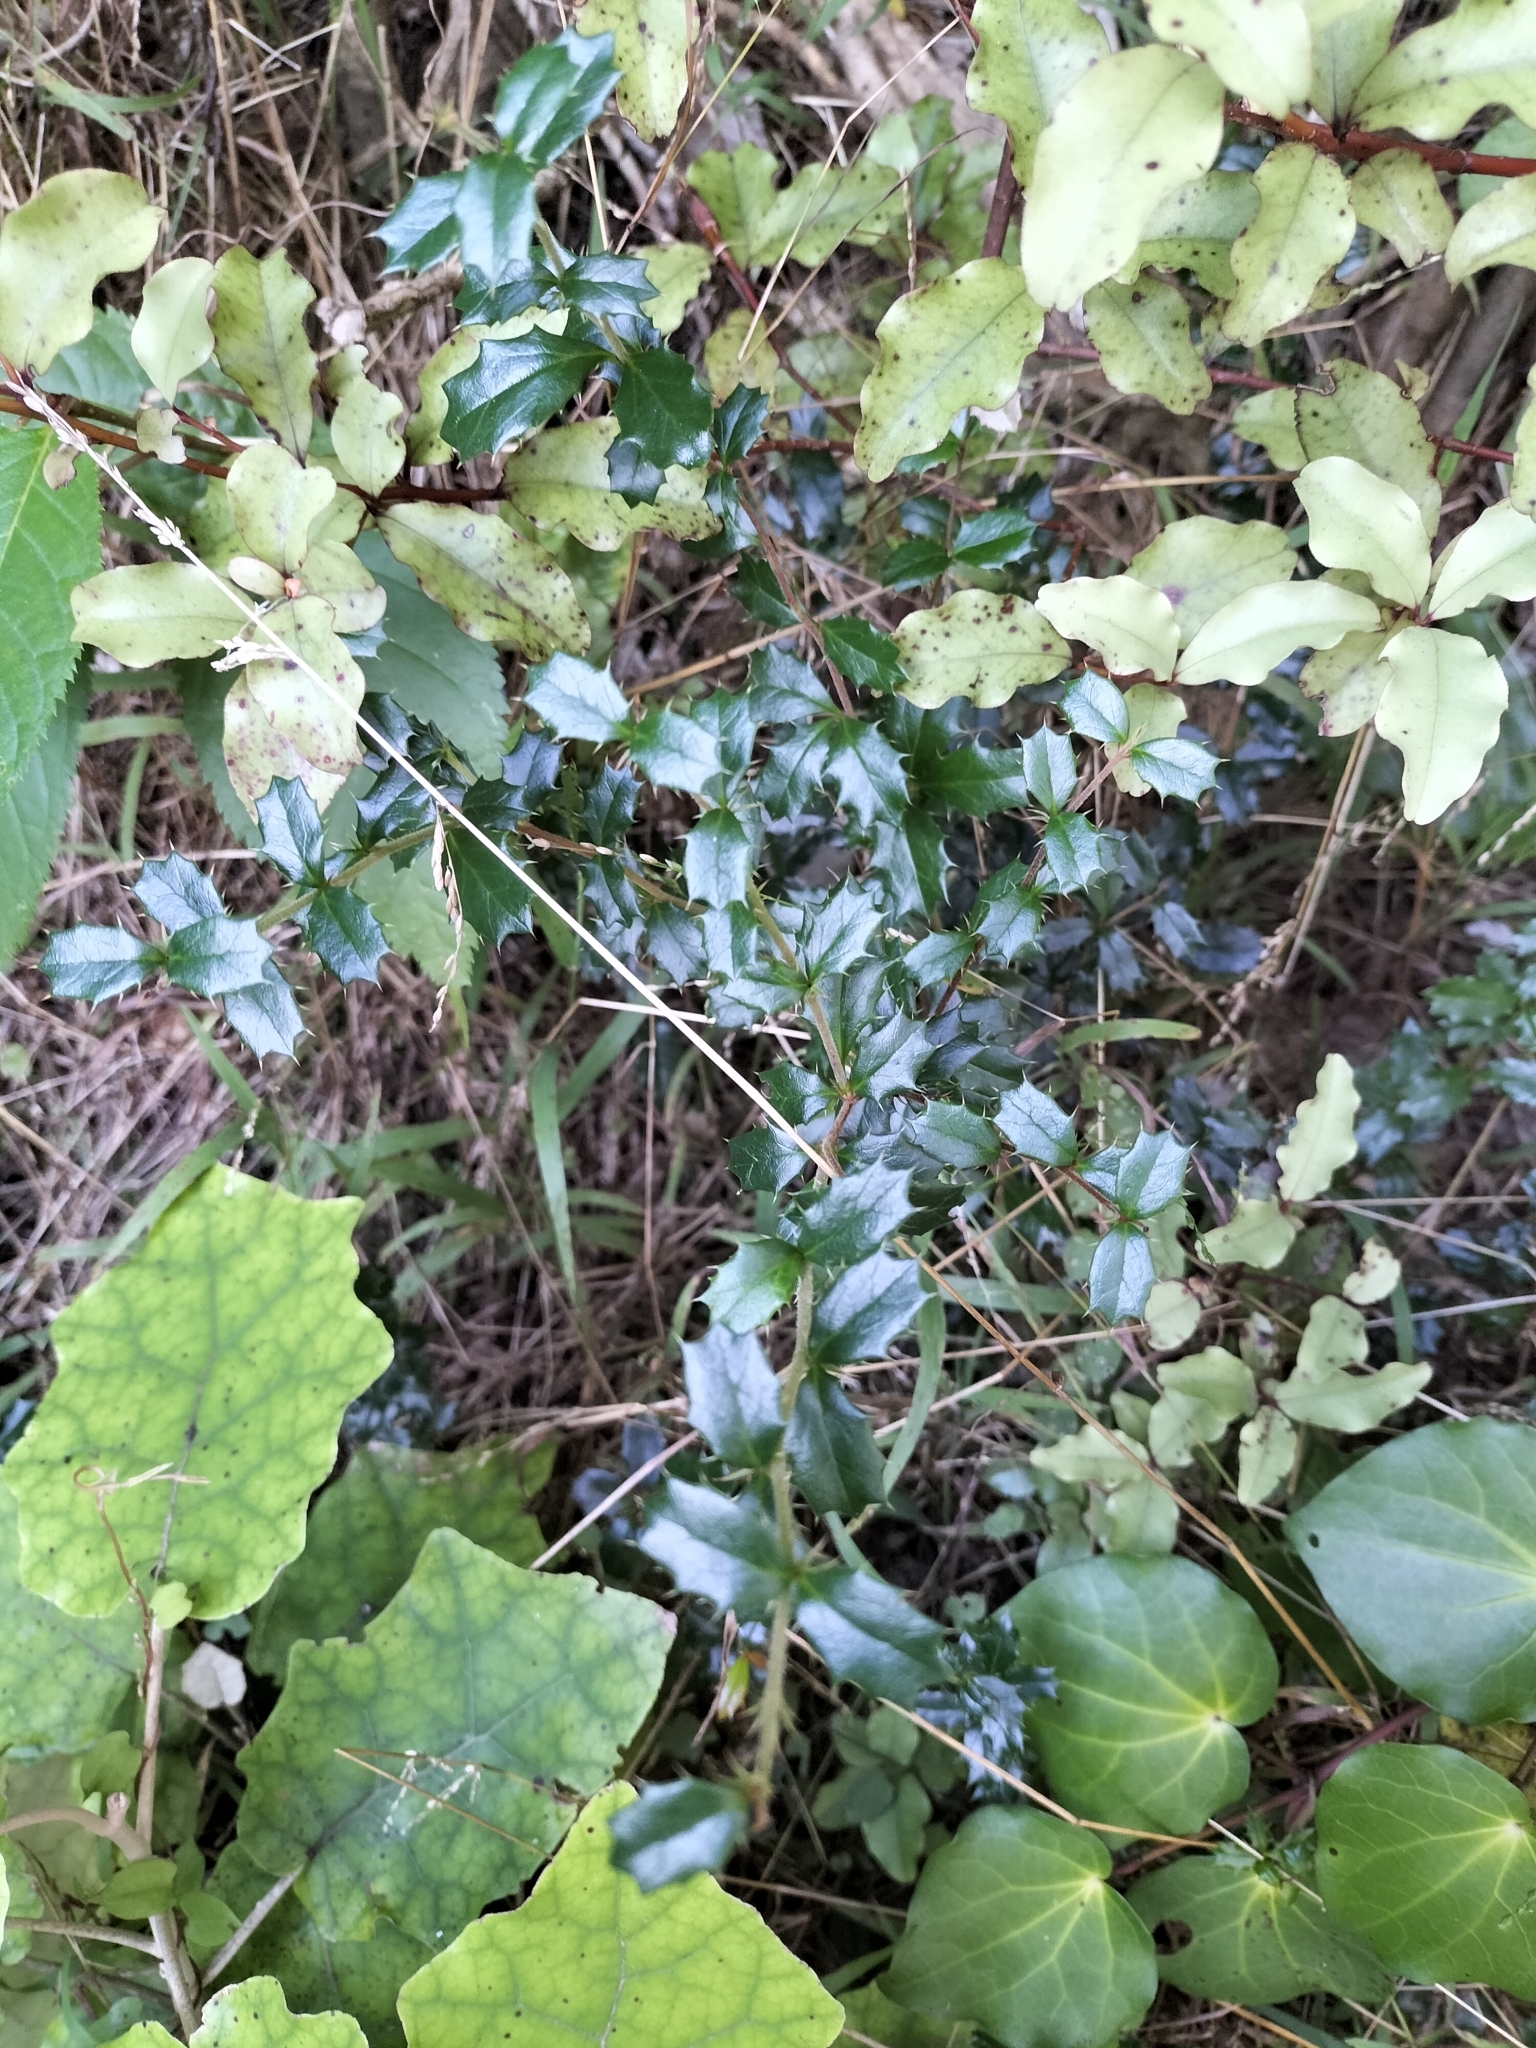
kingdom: Plantae
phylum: Tracheophyta
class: Magnoliopsida
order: Ranunculales
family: Berberidaceae
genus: Berberis
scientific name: Berberis darwinii
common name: Darwin's barberry
